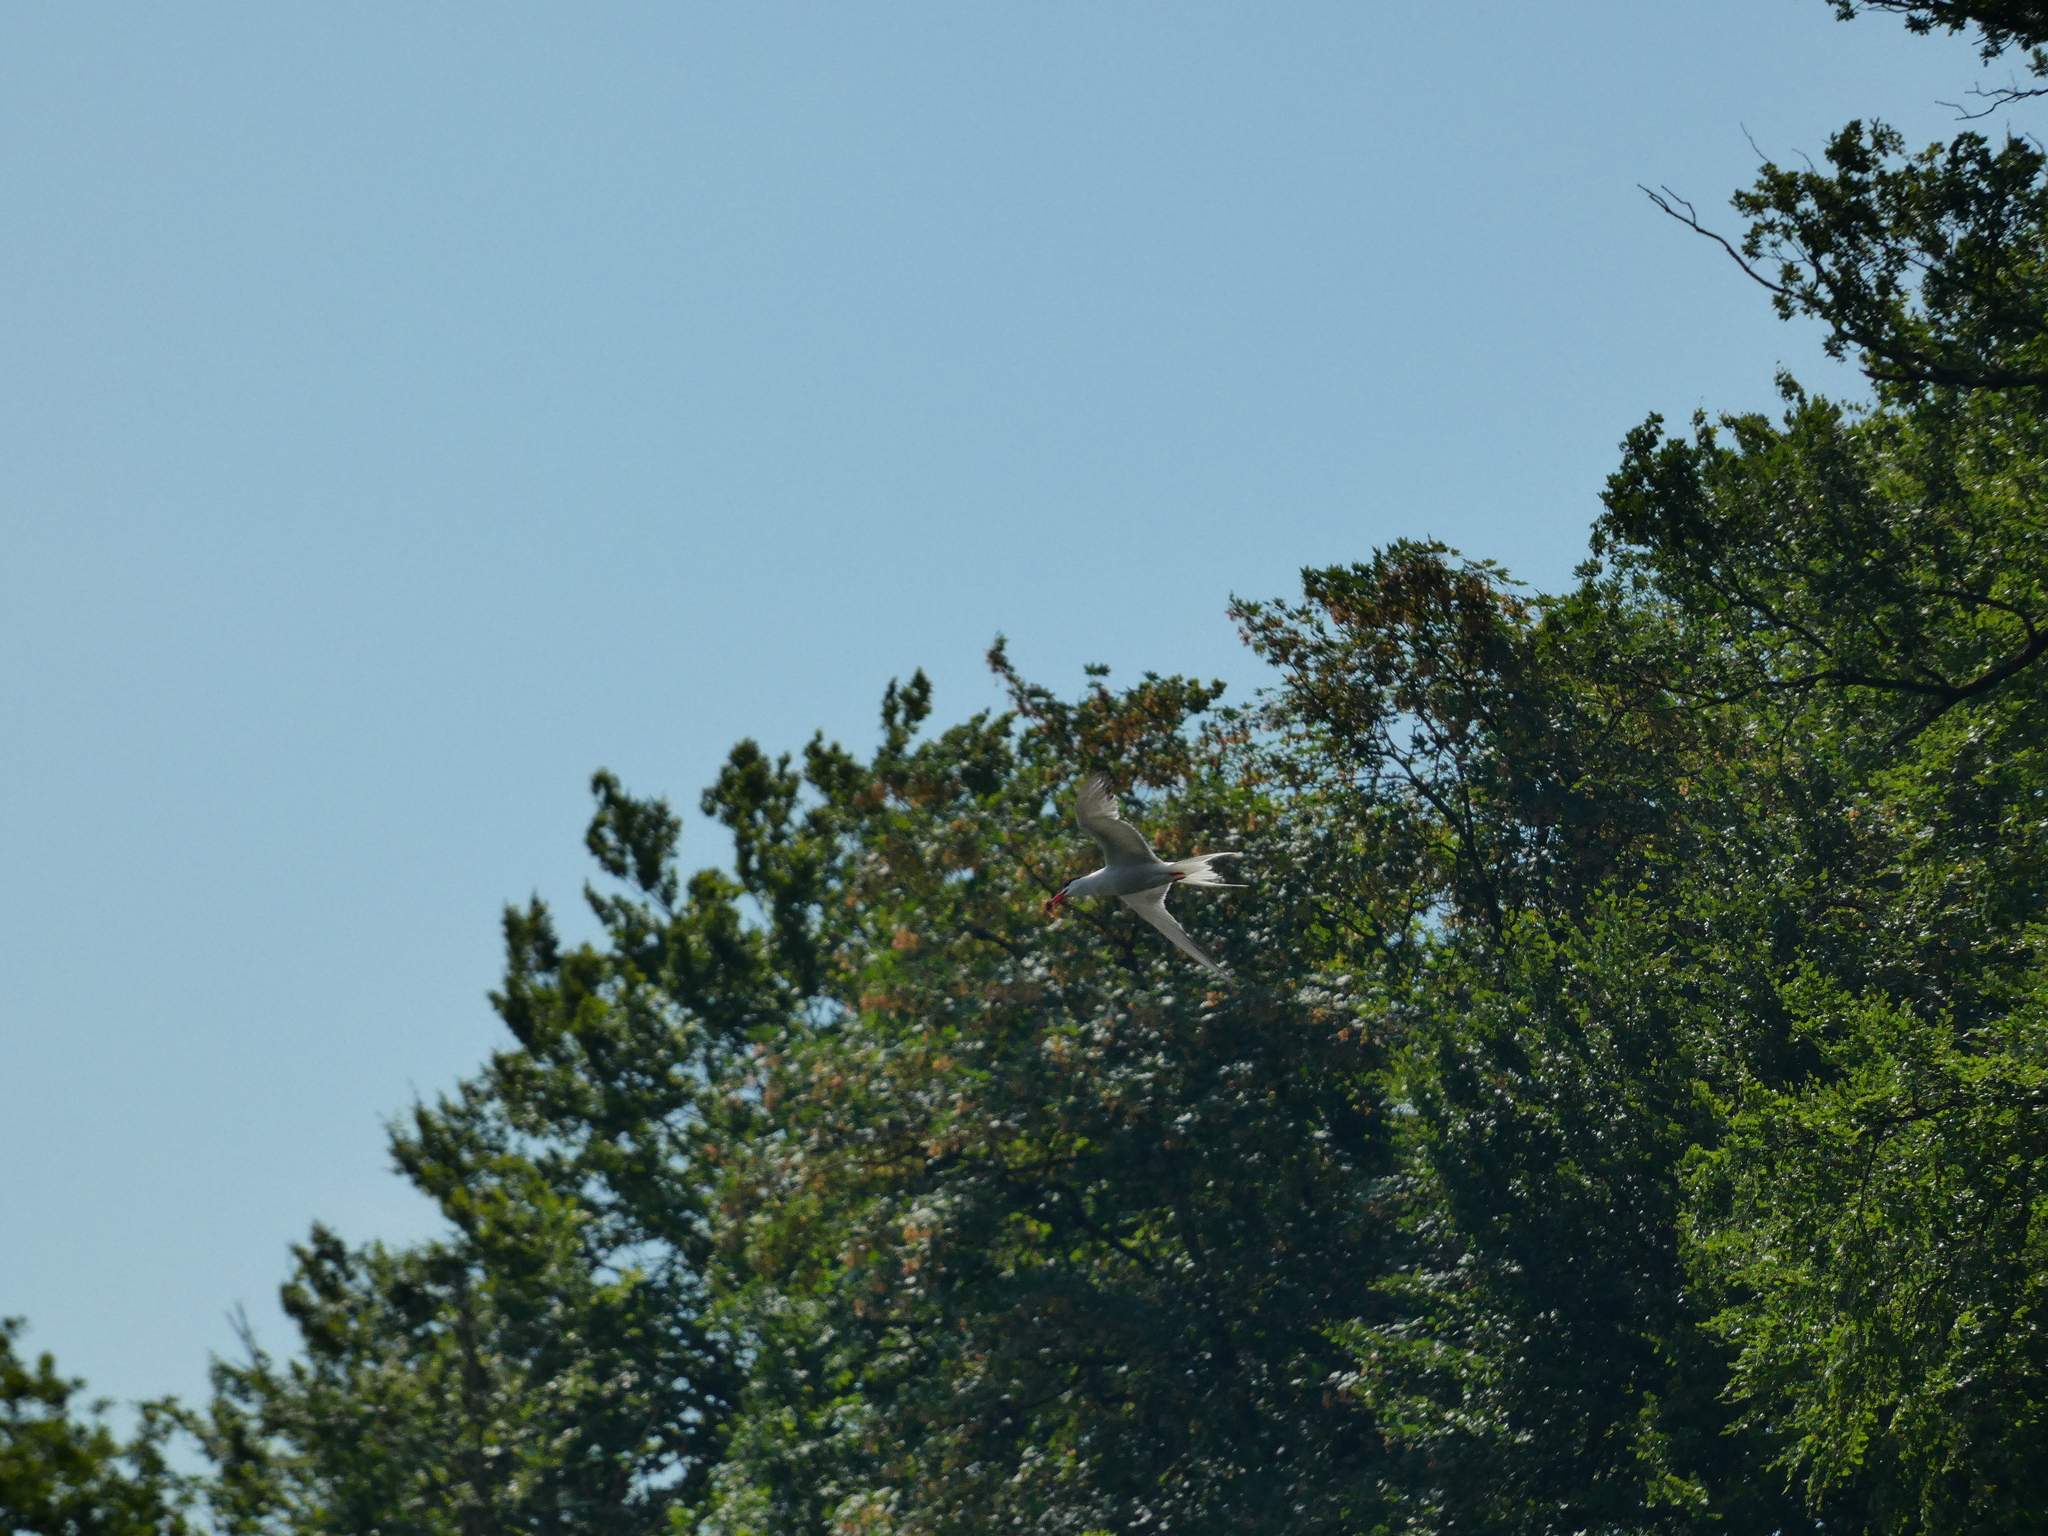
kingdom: Animalia
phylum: Chordata
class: Aves
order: Charadriiformes
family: Laridae
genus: Sterna
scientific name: Sterna hirundo
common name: Common tern
